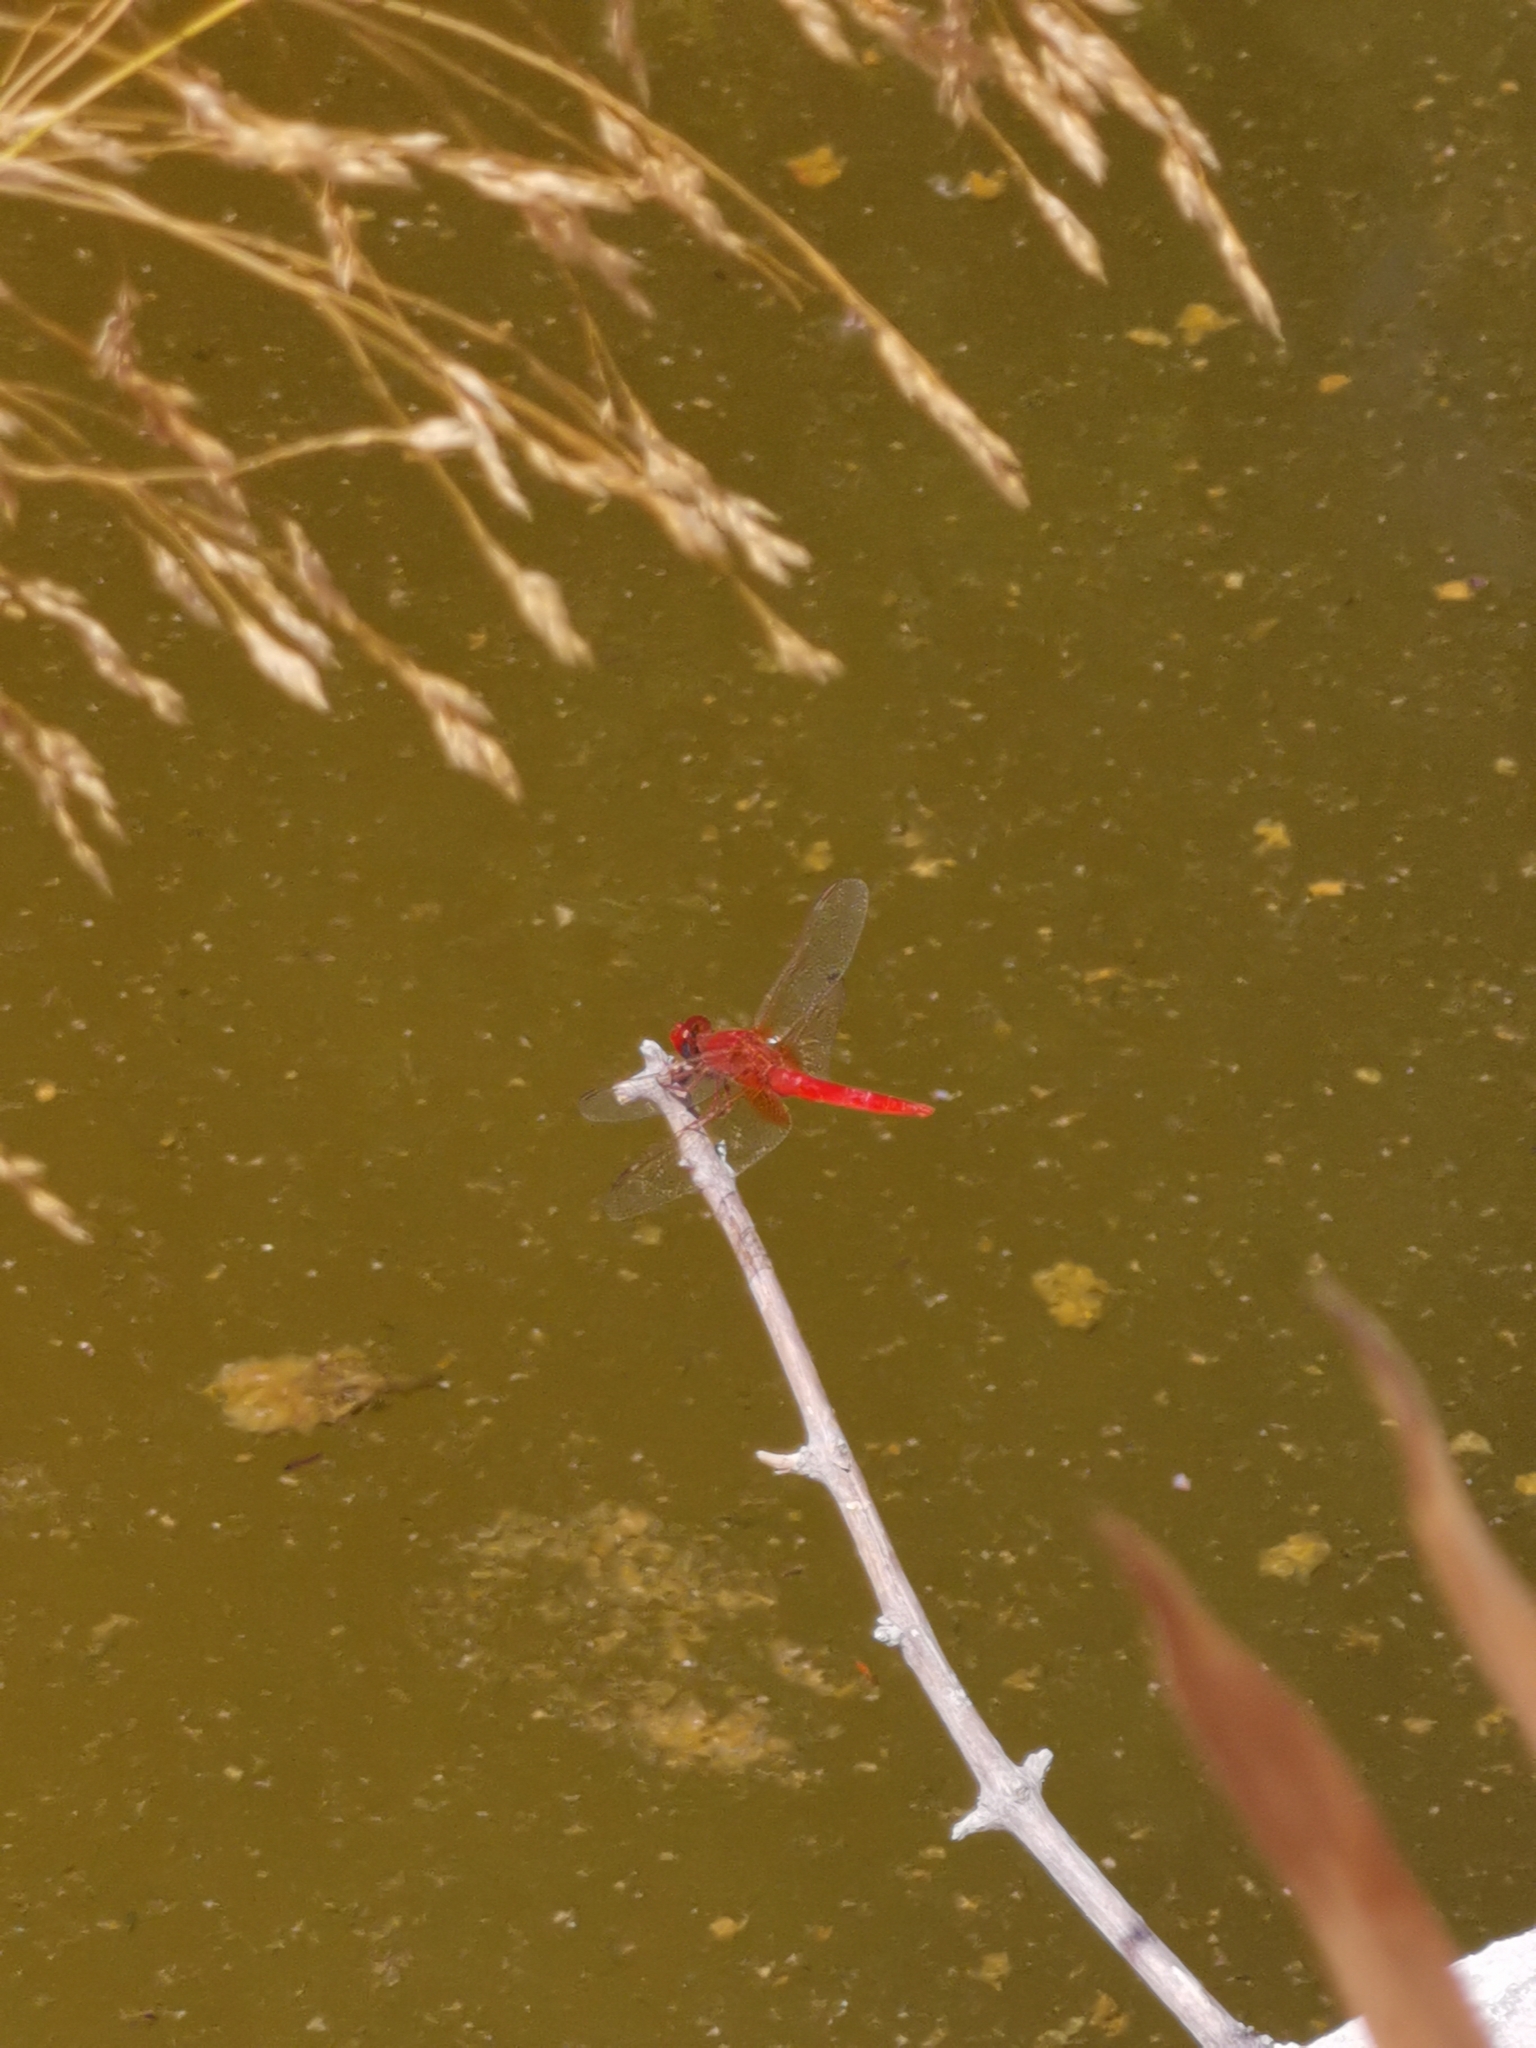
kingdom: Animalia
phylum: Arthropoda
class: Insecta
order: Odonata
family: Libellulidae
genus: Crocothemis
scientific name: Crocothemis erythraea
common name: Scarlet dragonfly
